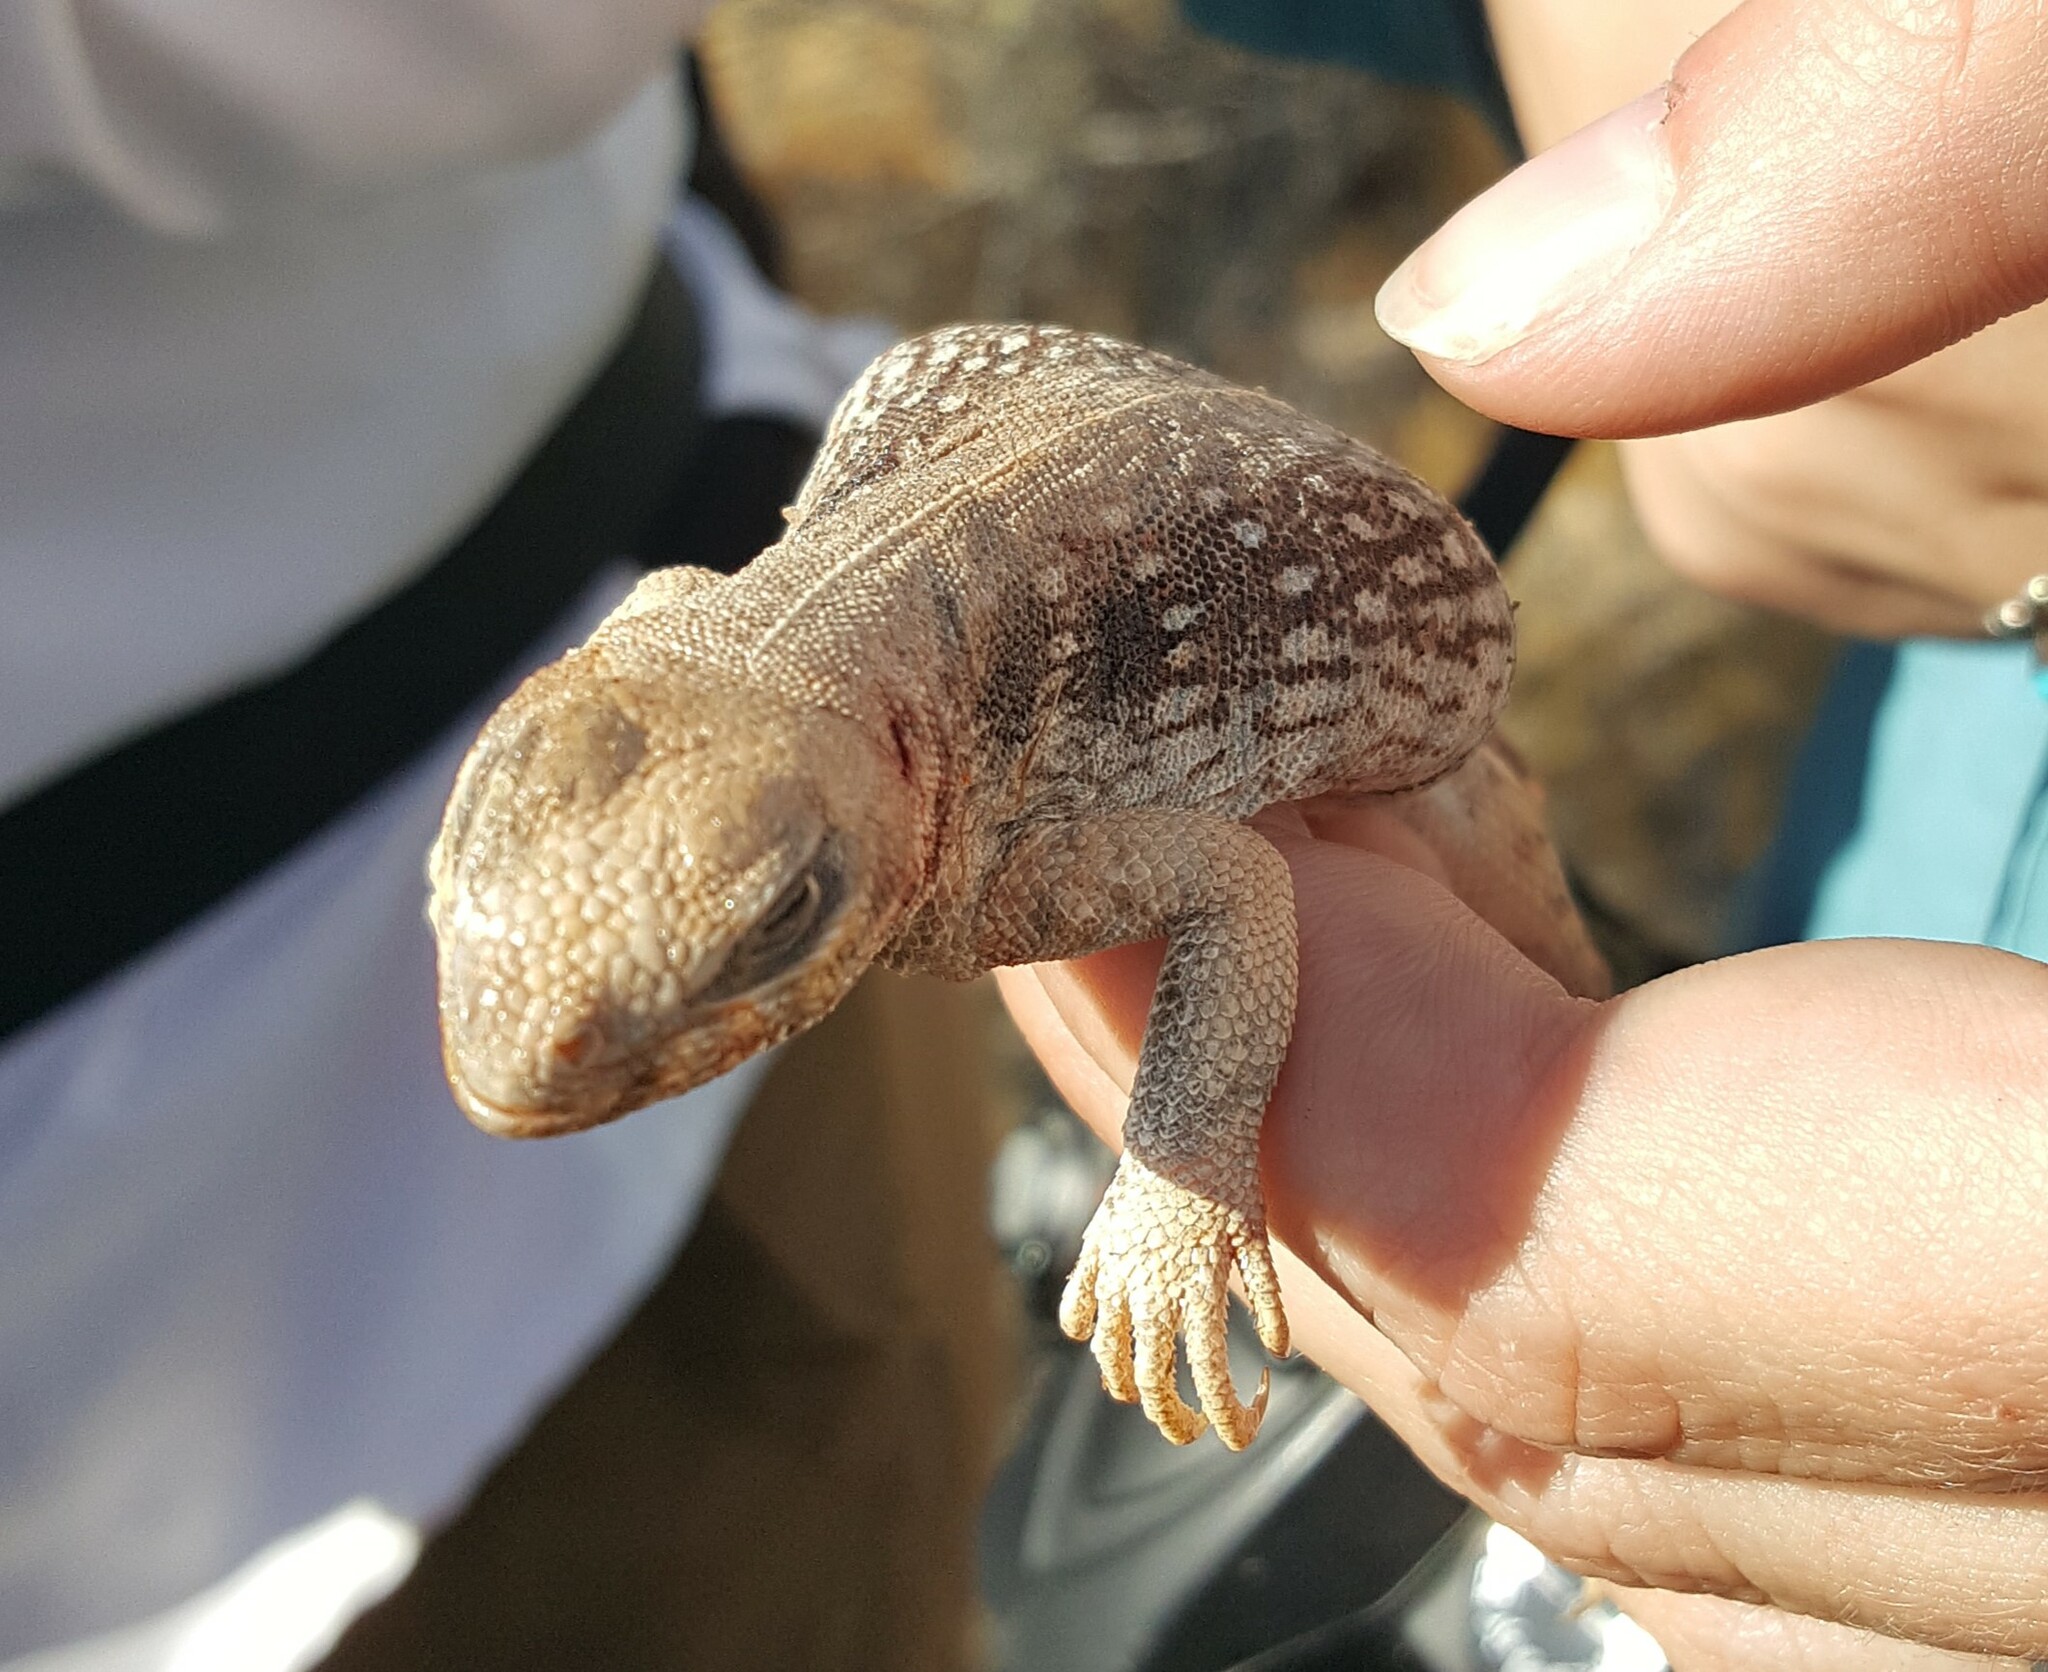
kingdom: Animalia
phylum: Chordata
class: Squamata
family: Iguanidae
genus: Dipsosaurus
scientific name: Dipsosaurus dorsalis
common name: Desert iguana
